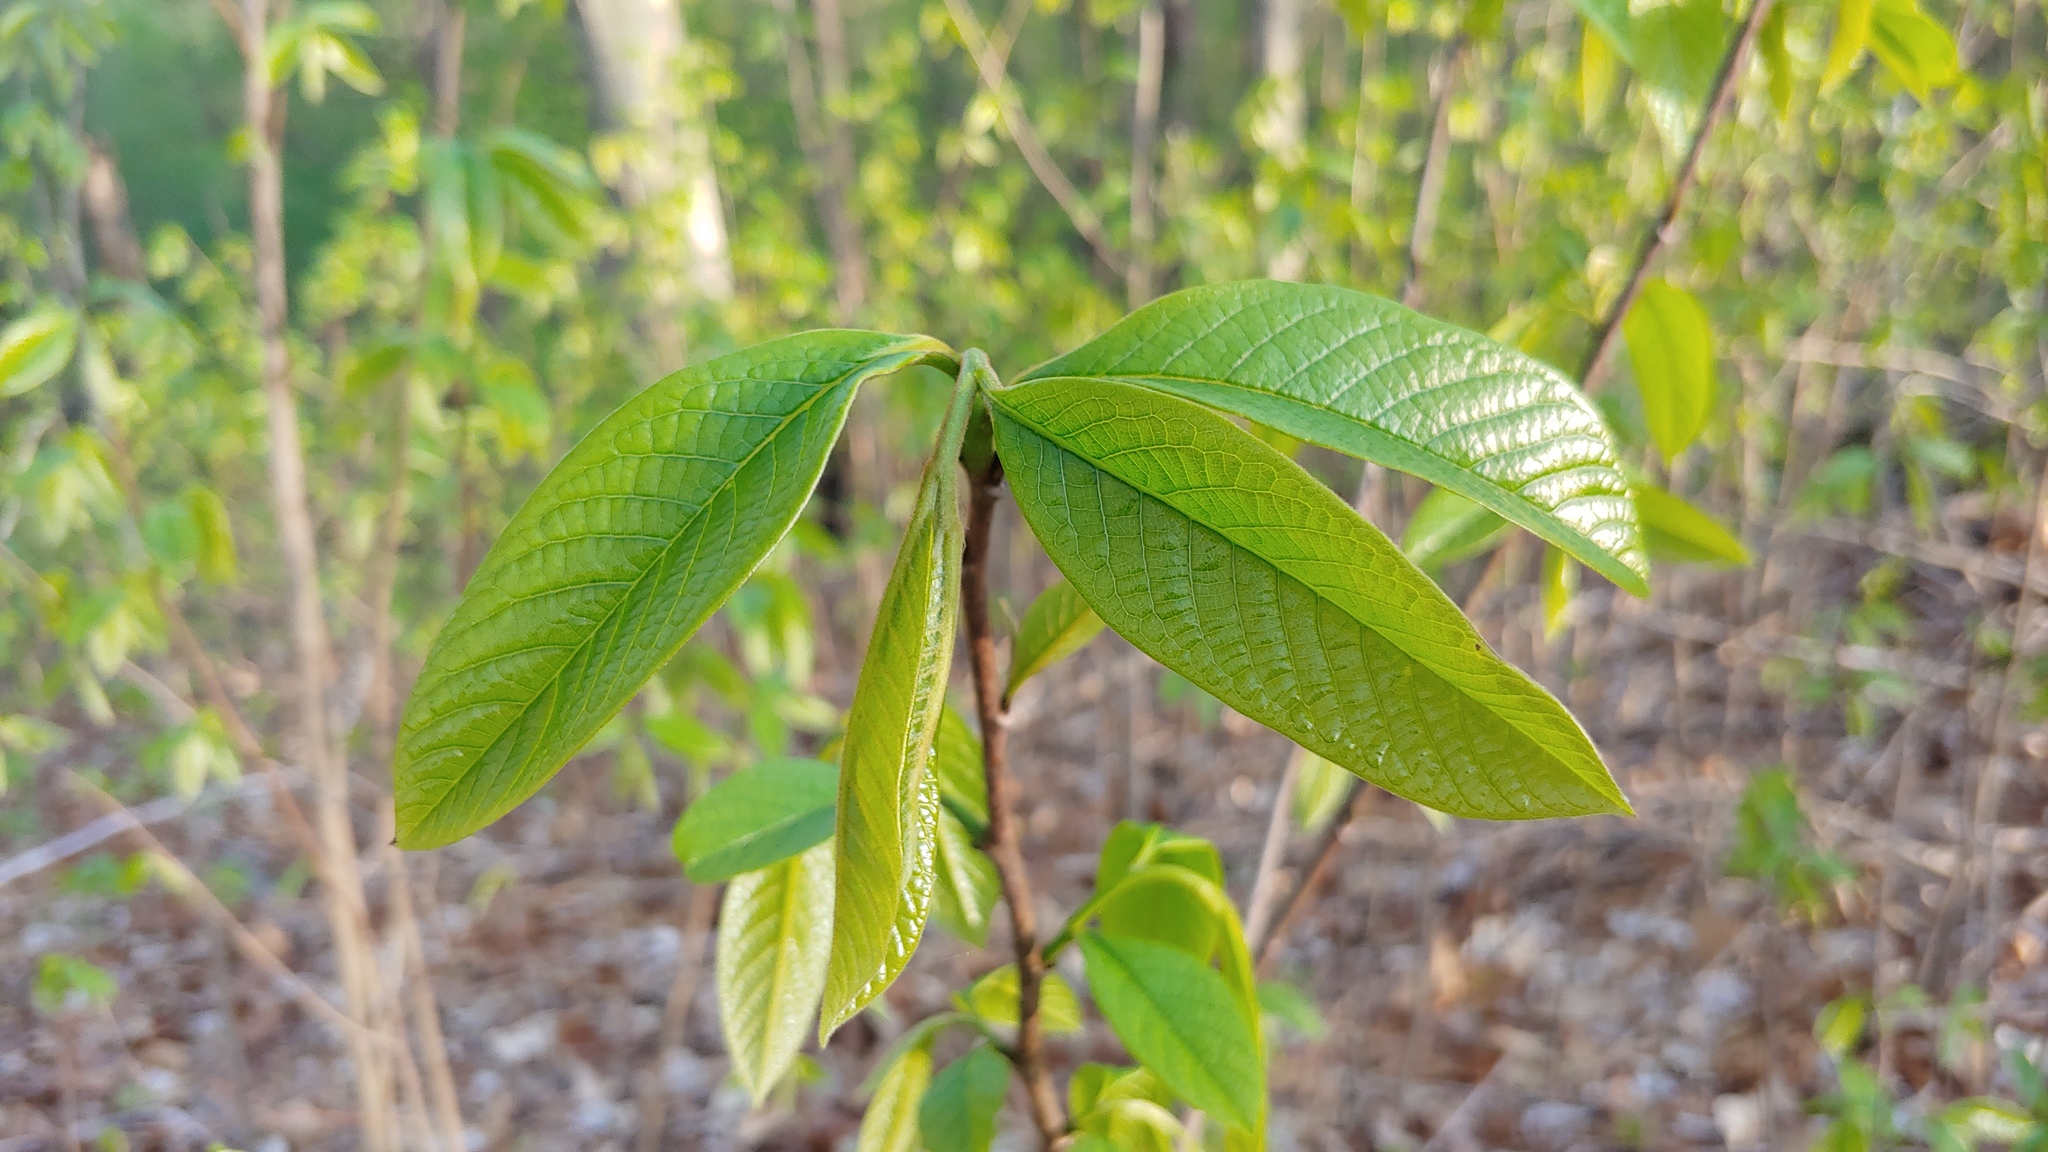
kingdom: Plantae
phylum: Tracheophyta
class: Magnoliopsida
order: Magnoliales
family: Annonaceae
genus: Asimina
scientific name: Asimina triloba
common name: Dog-banana
